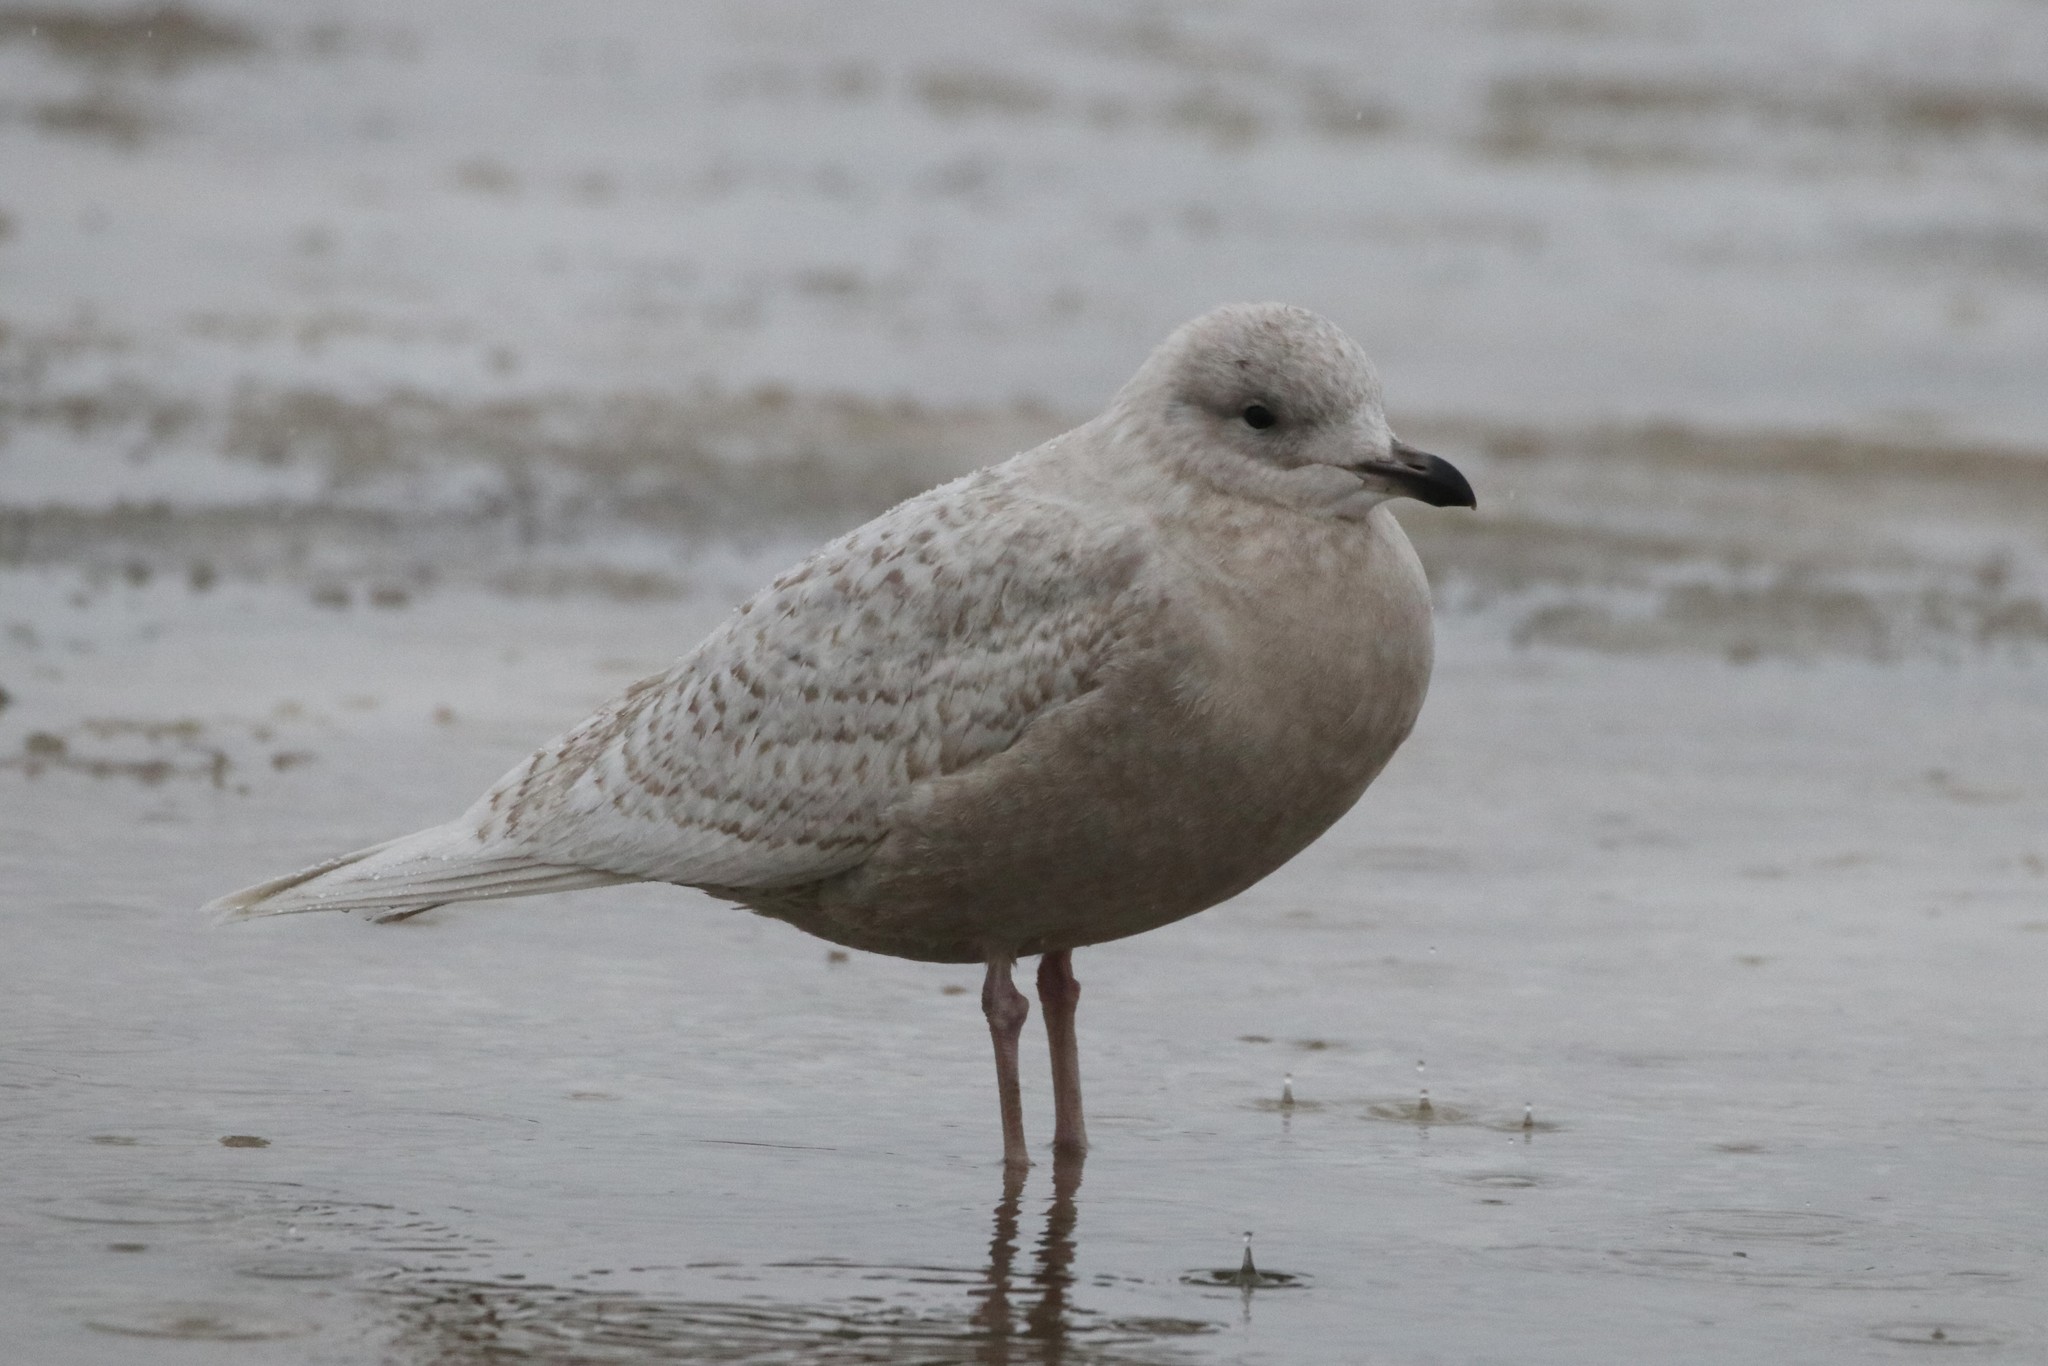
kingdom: Animalia
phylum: Chordata
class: Aves
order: Charadriiformes
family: Laridae
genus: Larus
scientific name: Larus glaucoides
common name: Iceland gull
